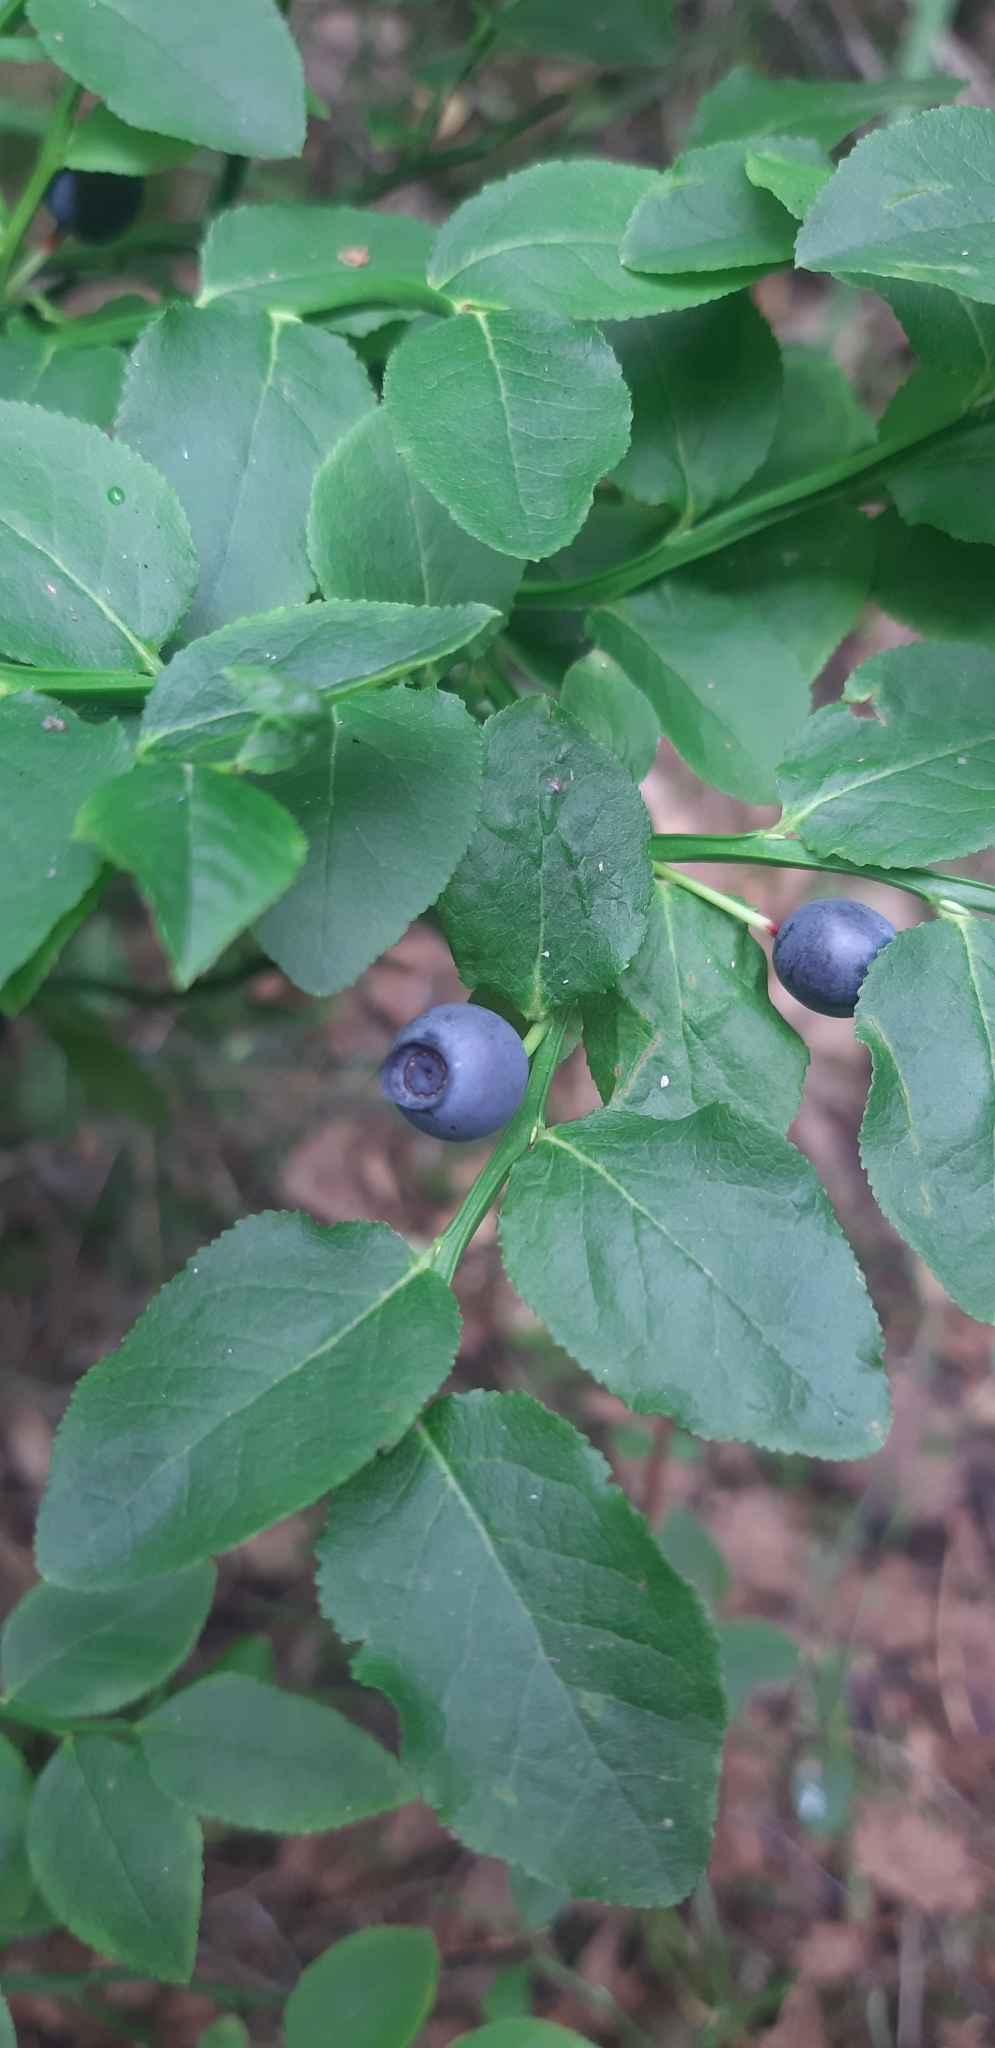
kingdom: Plantae
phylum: Tracheophyta
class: Magnoliopsida
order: Ericales
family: Ericaceae
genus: Vaccinium
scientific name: Vaccinium myrtillus
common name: Bilberry
